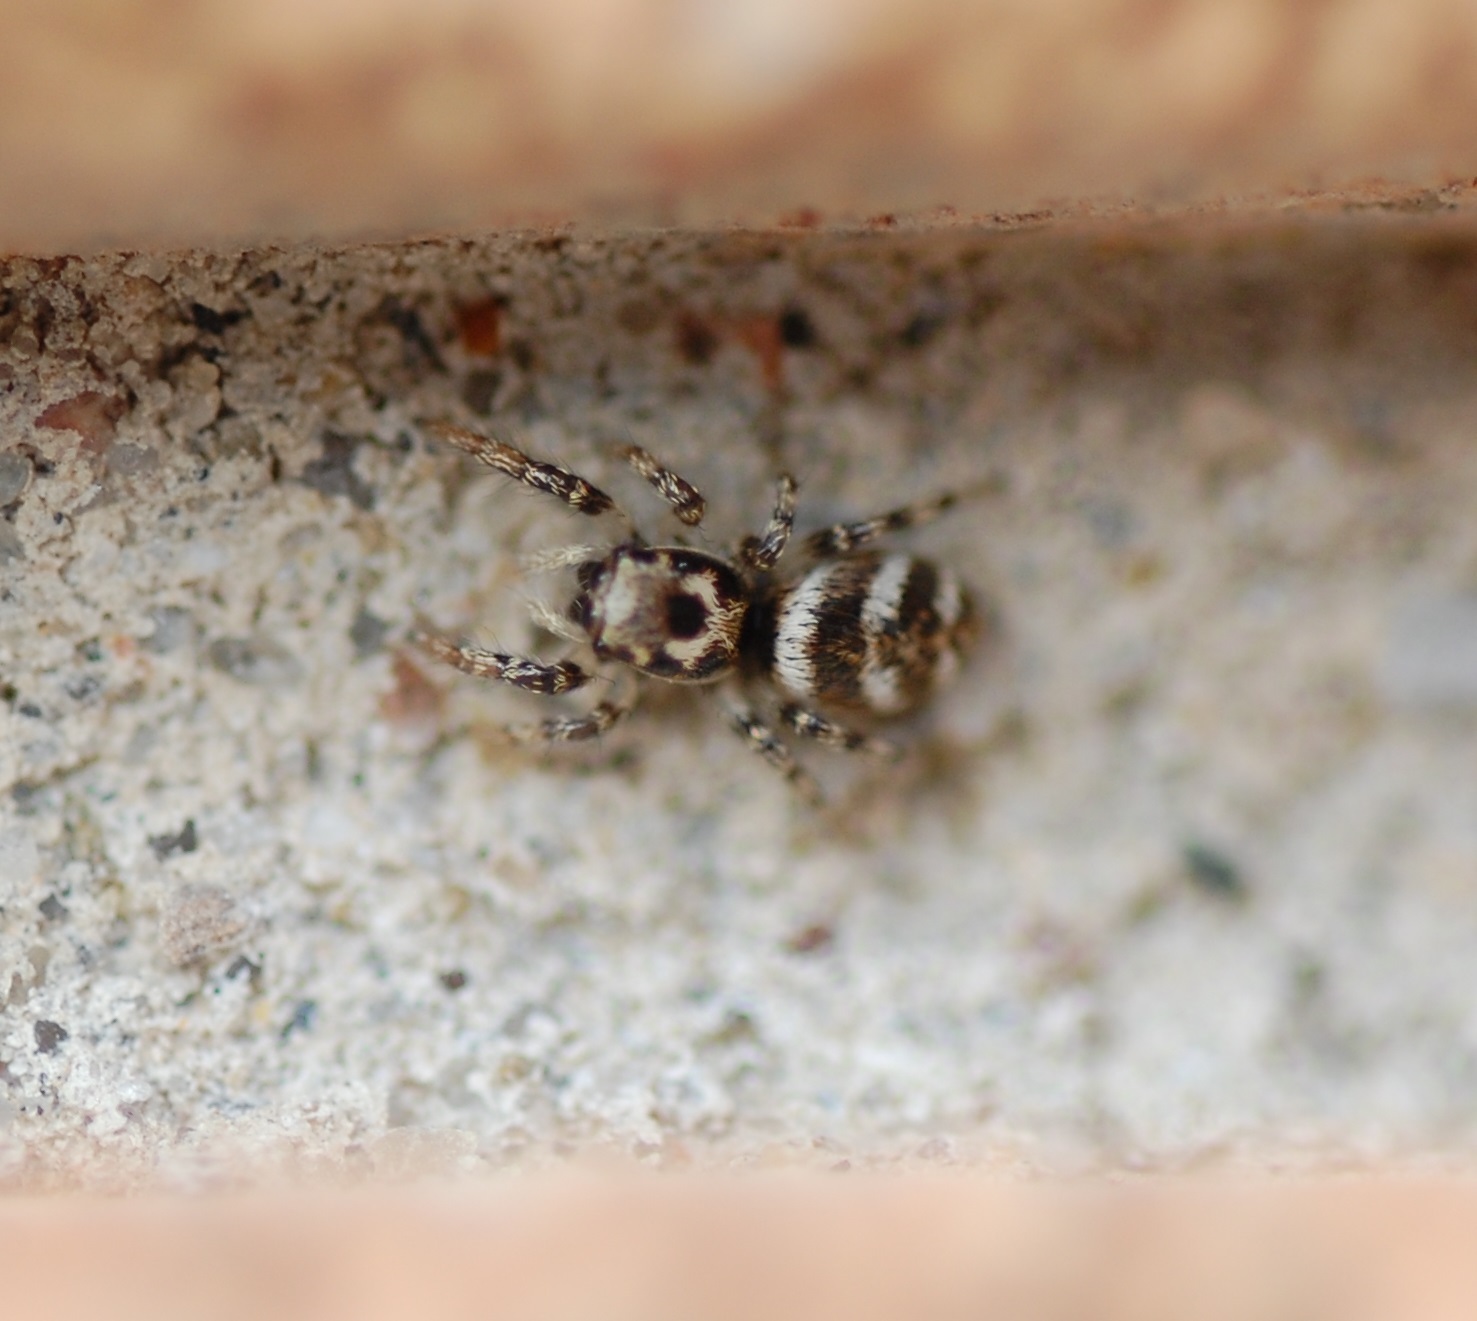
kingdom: Animalia
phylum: Arthropoda
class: Arachnida
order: Araneae
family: Salticidae
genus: Salticus
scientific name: Salticus scenicus
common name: Zebra jumper
